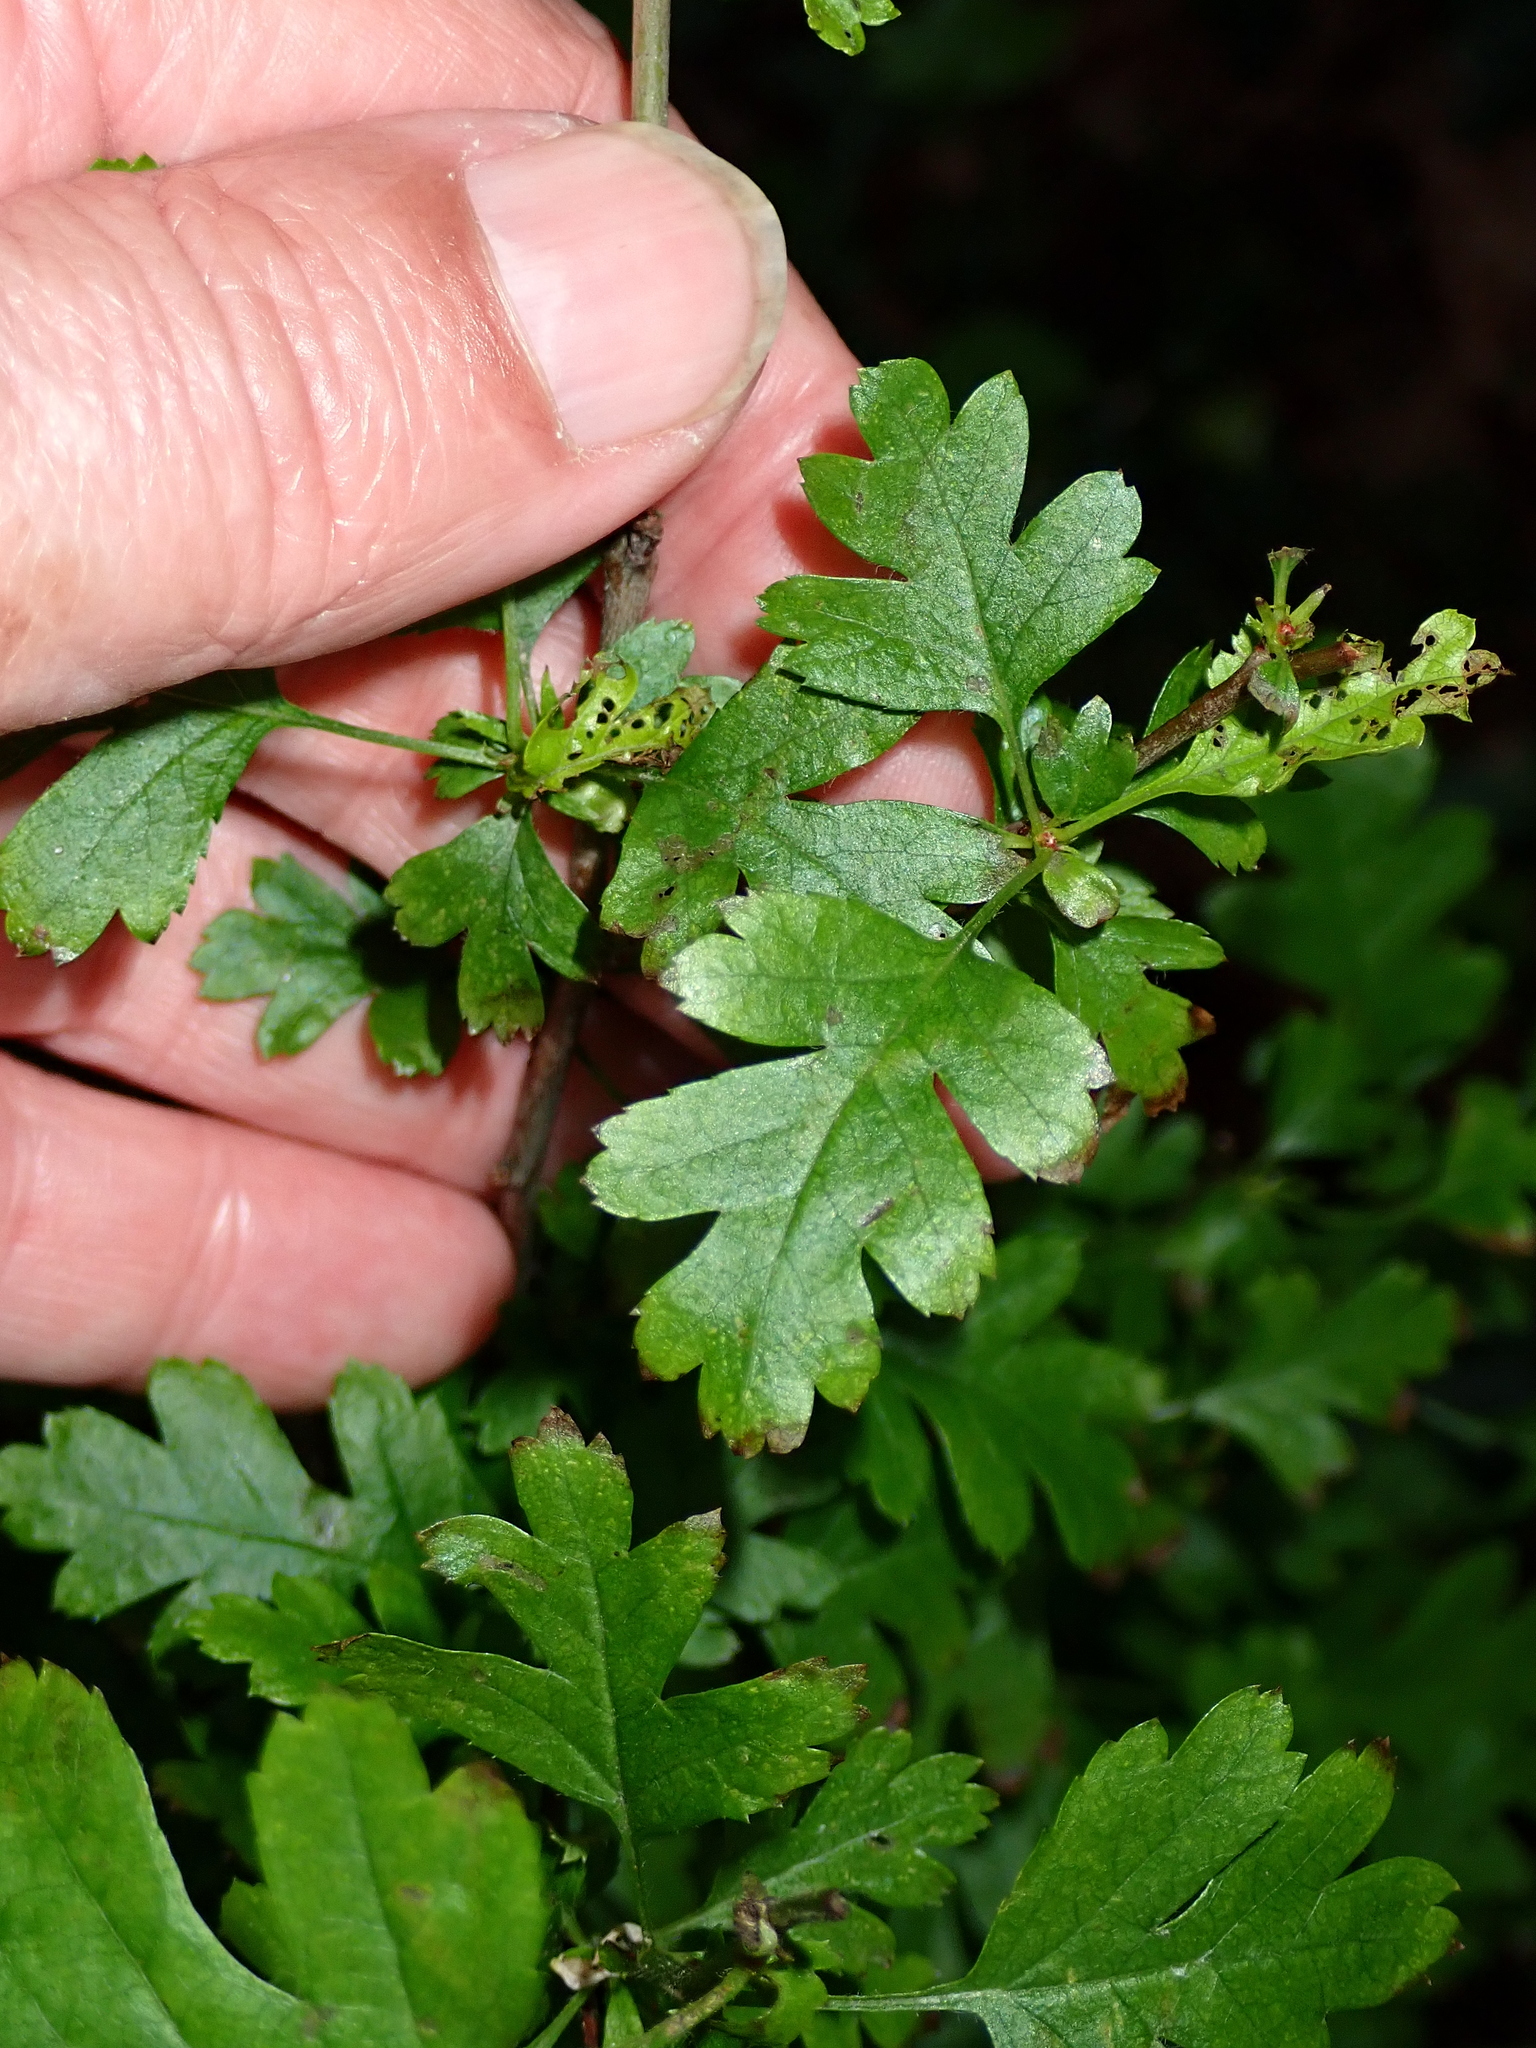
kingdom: Plantae
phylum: Tracheophyta
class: Magnoliopsida
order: Rosales
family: Rosaceae
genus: Crataegus
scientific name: Crataegus monogyna
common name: Hawthorn
